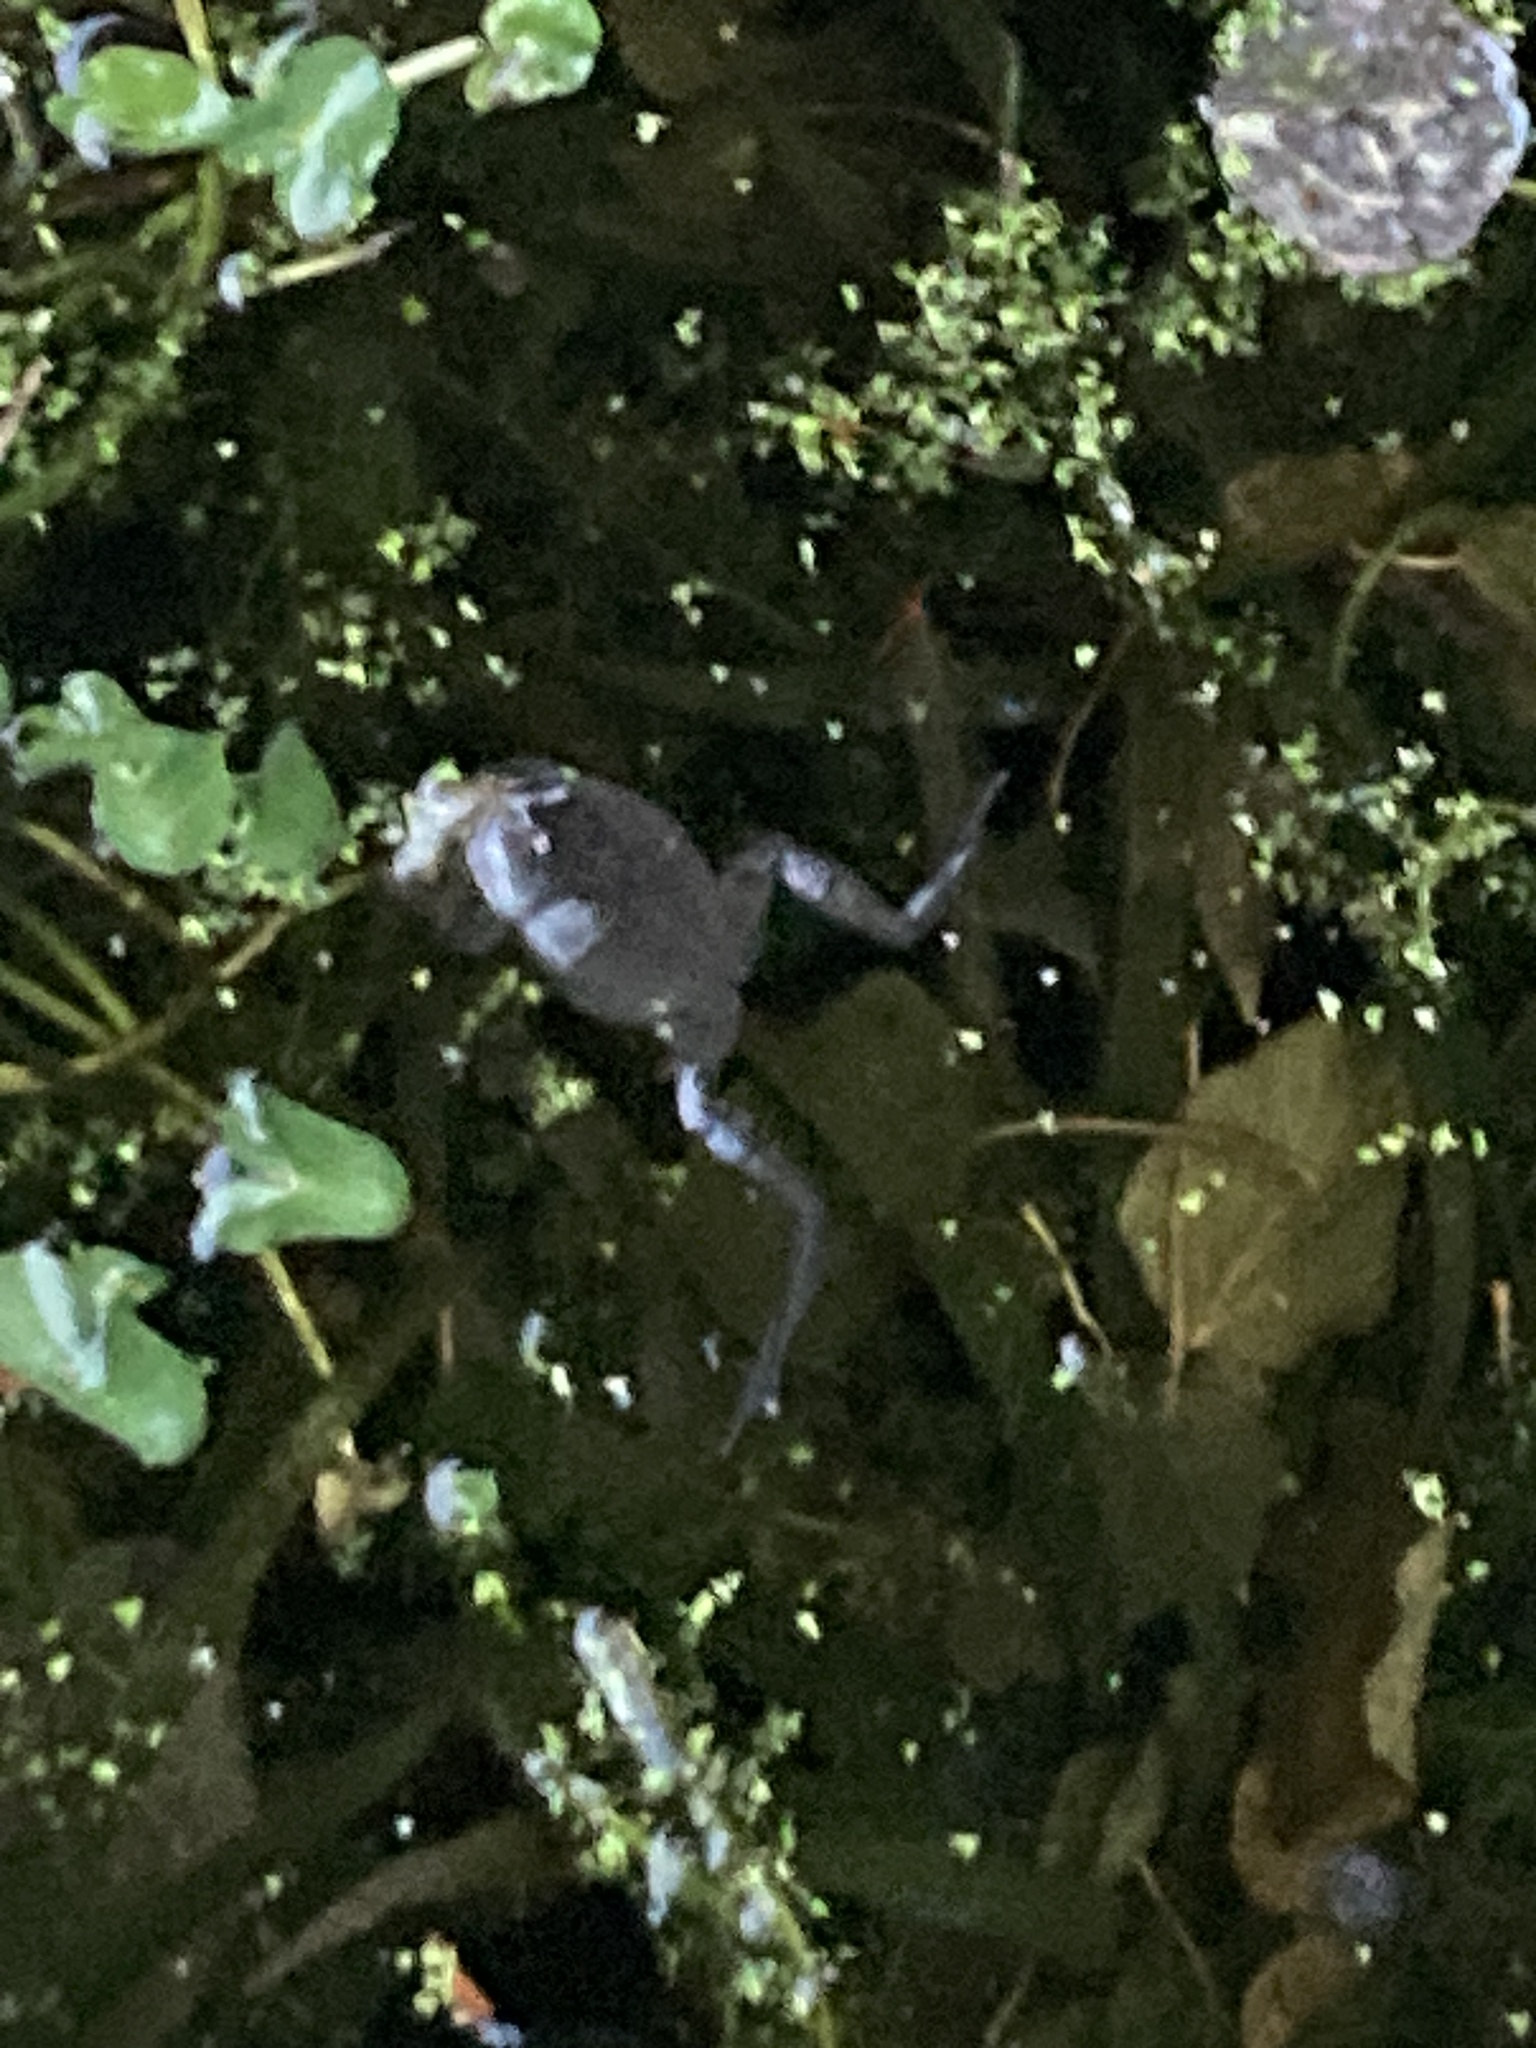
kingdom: Animalia
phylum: Chordata
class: Amphibia
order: Anura
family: Ranidae
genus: Rana
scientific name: Rana temporaria
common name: Common frog
